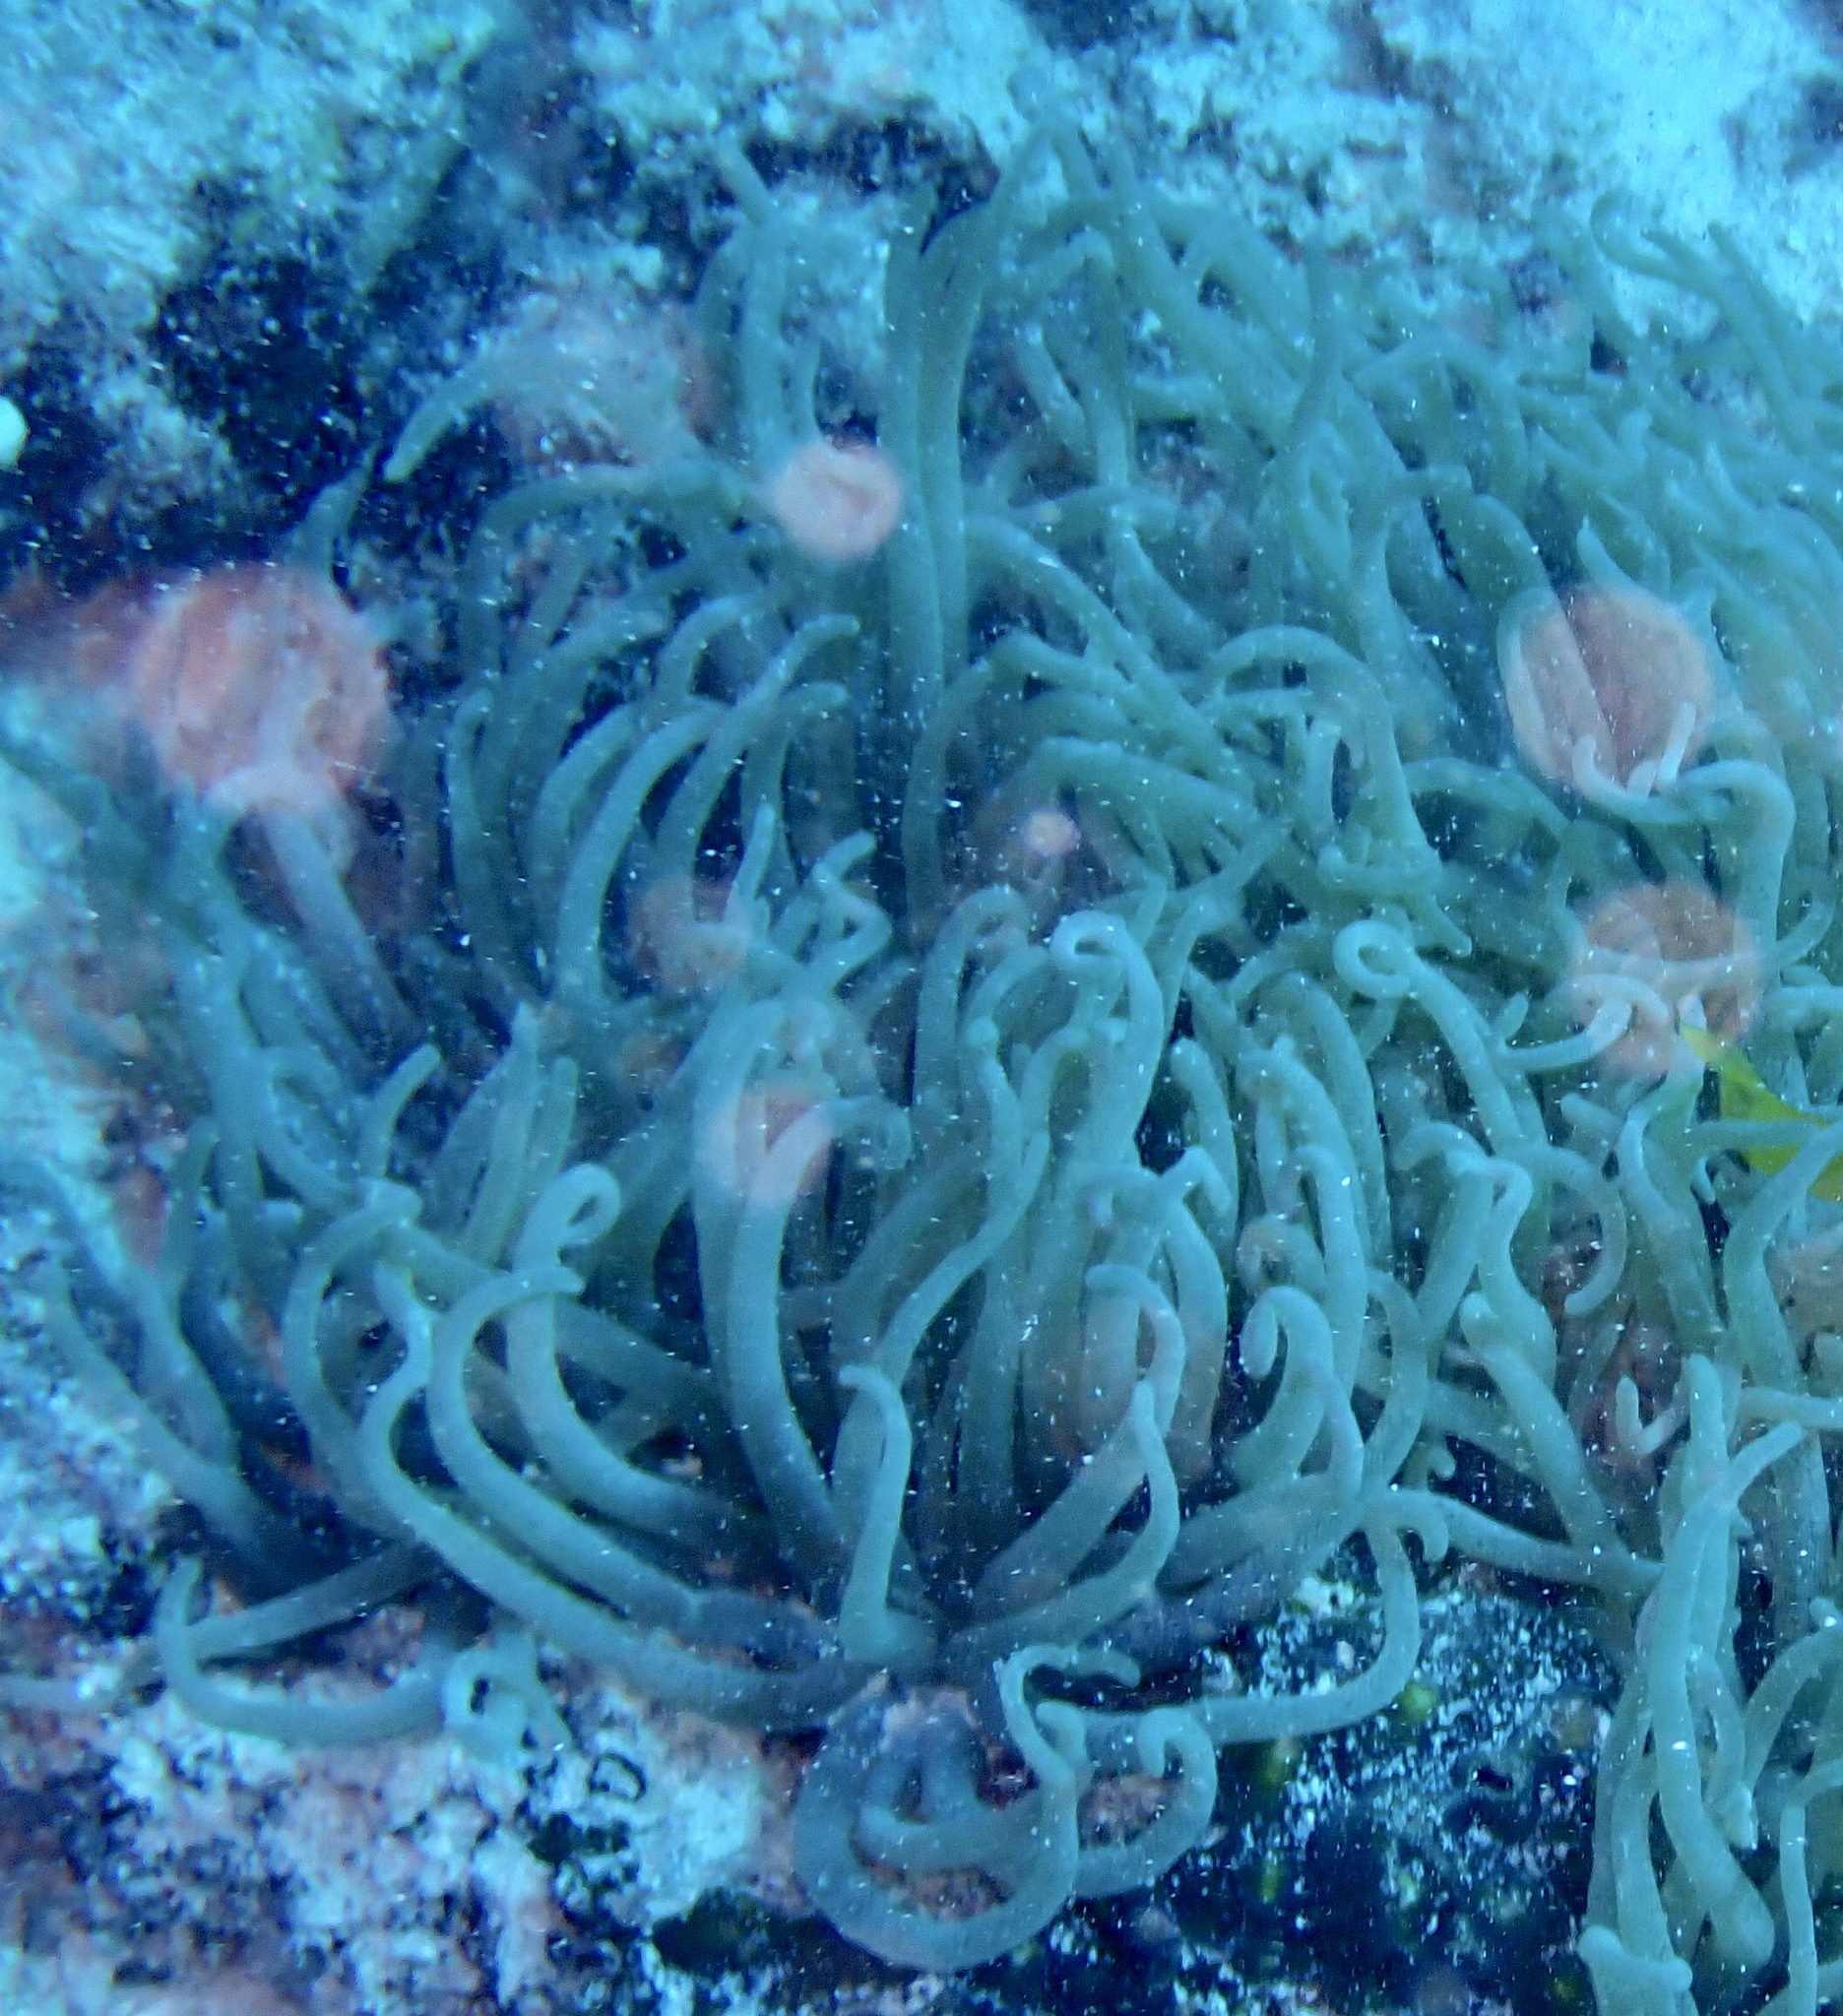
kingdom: Animalia
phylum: Cnidaria
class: Anthozoa
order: Actiniaria
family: Stichodactylidae
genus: Radianthus
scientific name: Radianthus crispa
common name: Leather anemone
